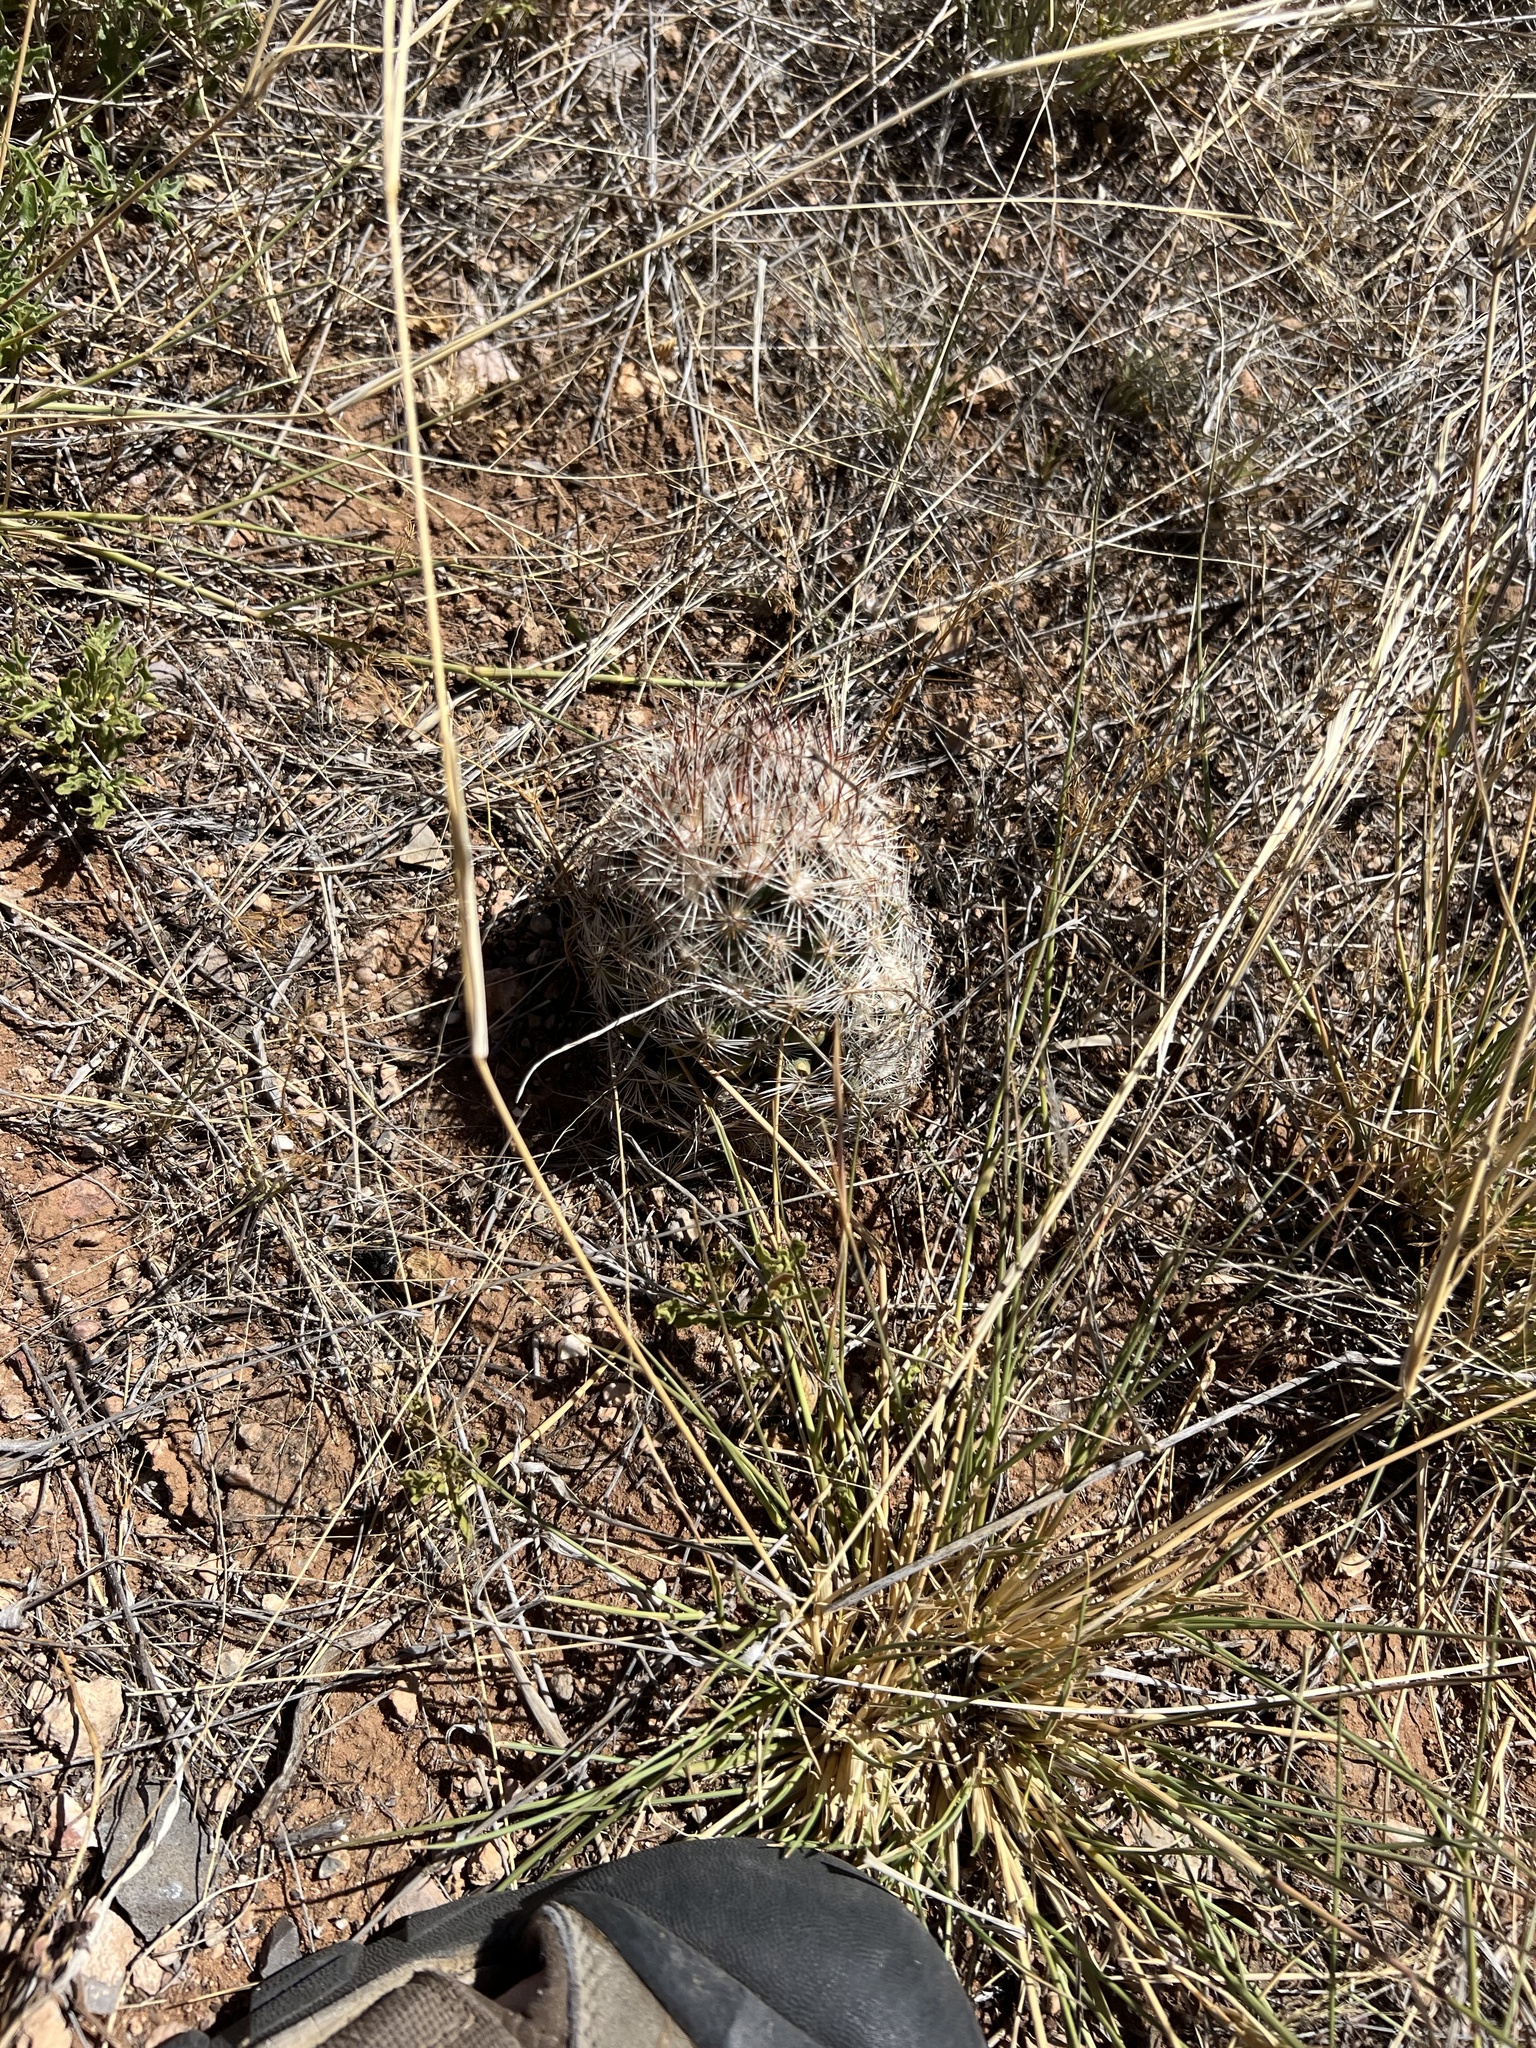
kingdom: Plantae
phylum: Tracheophyta
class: Magnoliopsida
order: Caryophyllales
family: Cactaceae
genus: Pelecyphora
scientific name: Pelecyphora vivipara
